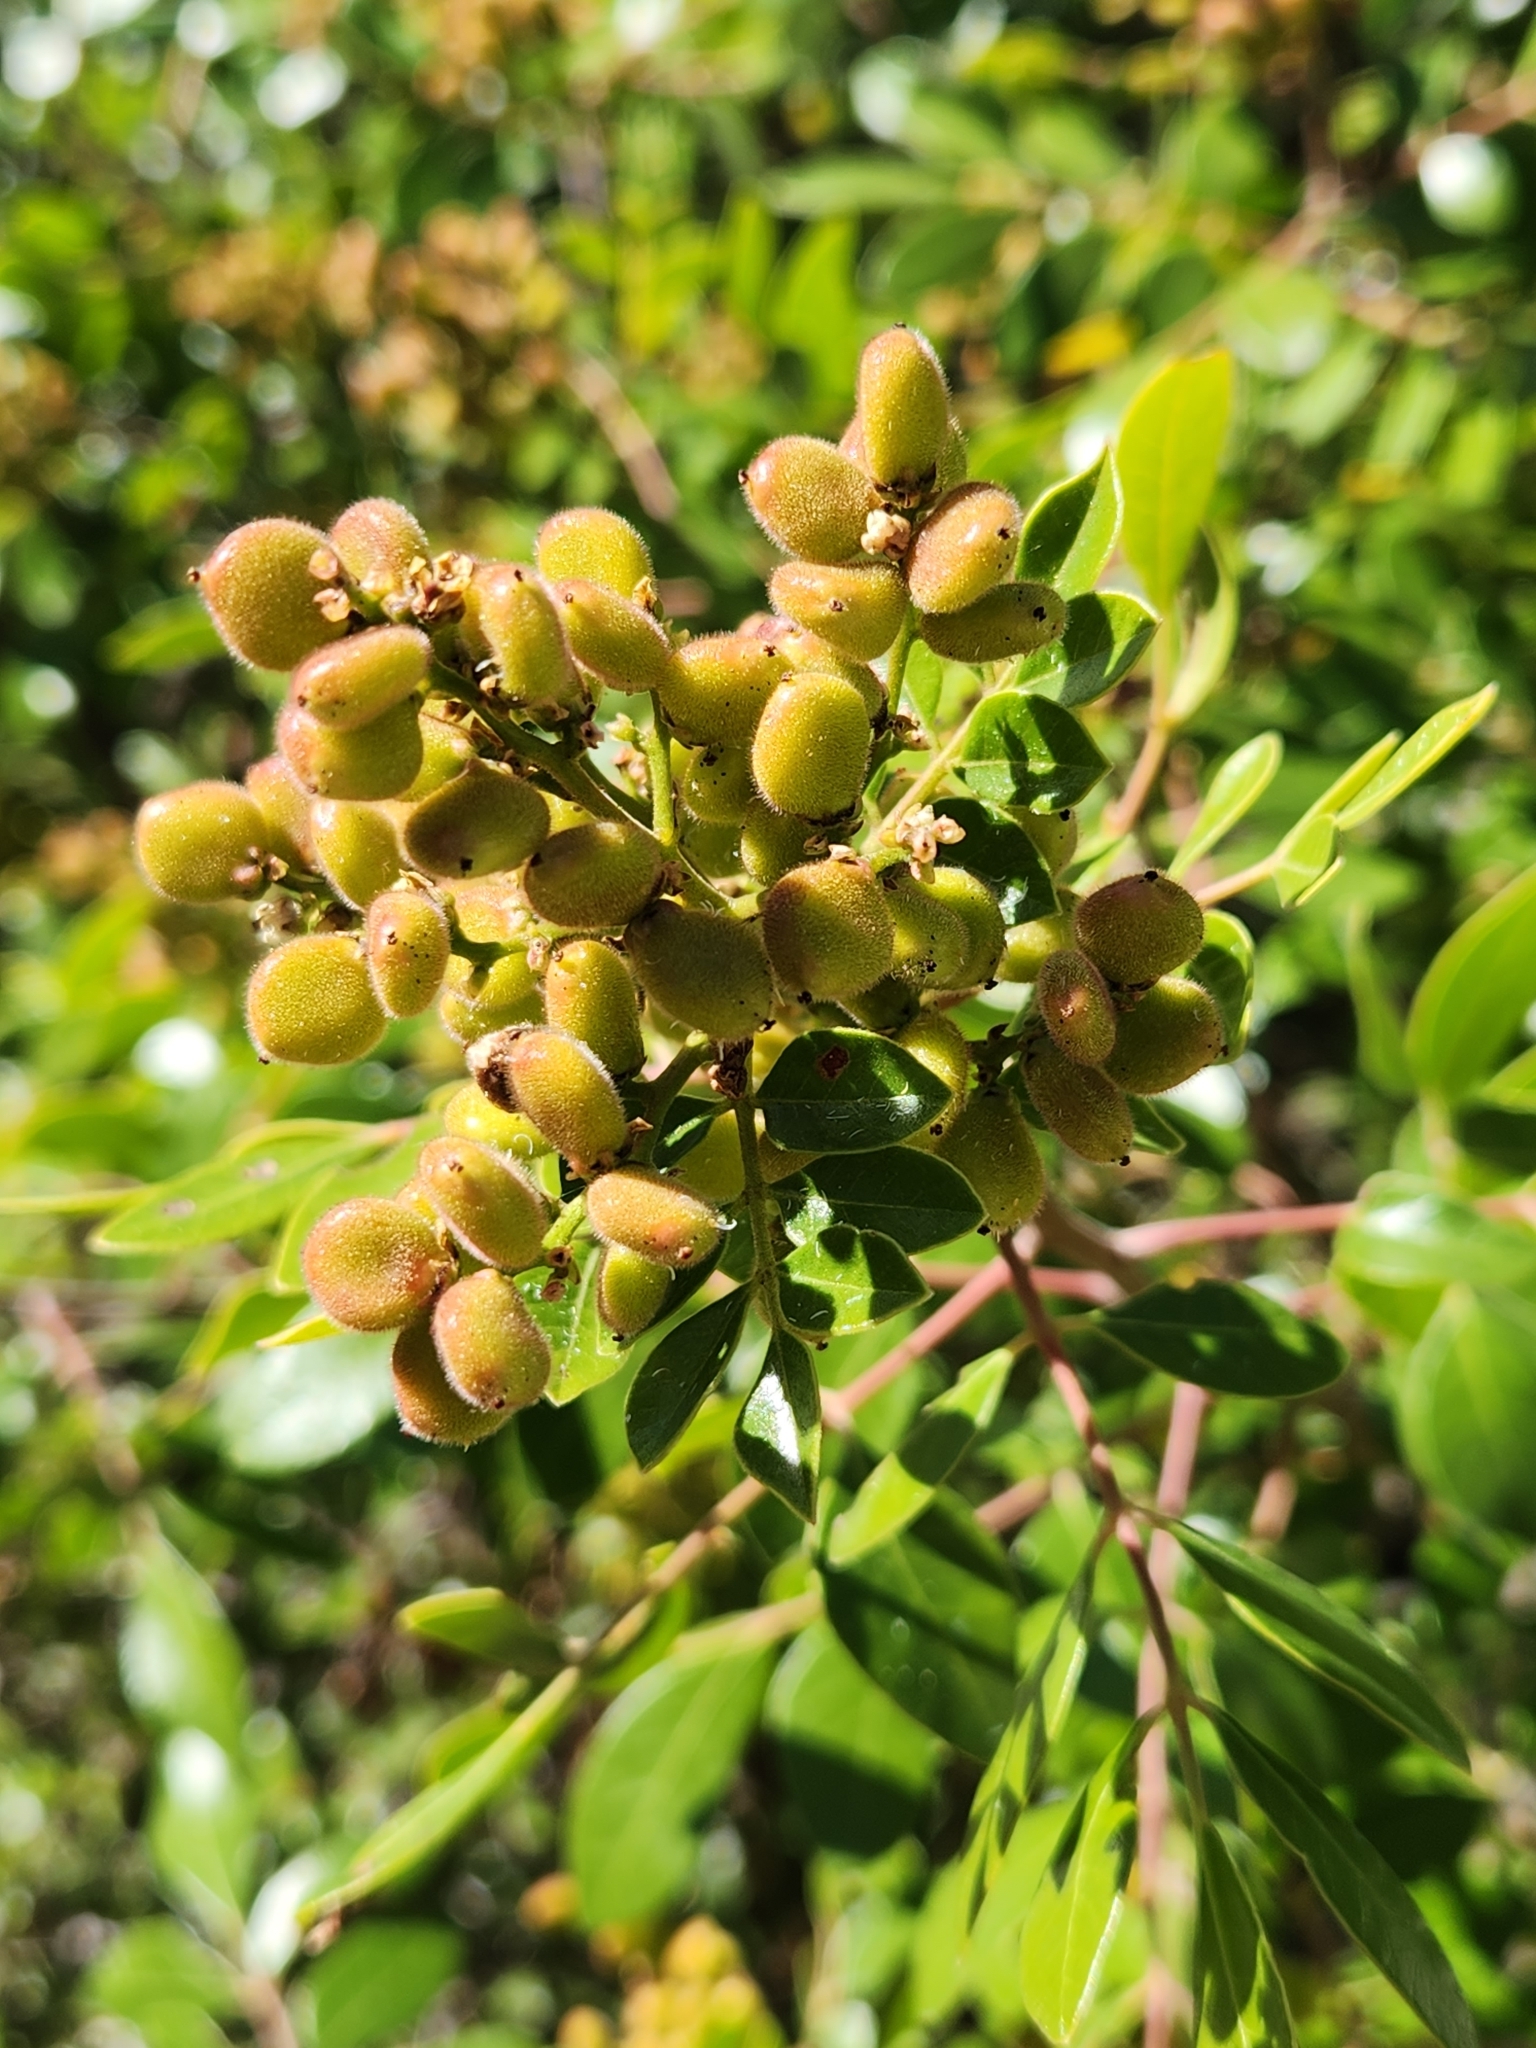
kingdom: Plantae
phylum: Tracheophyta
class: Magnoliopsida
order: Sapindales
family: Anacardiaceae
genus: Rhus
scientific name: Rhus virens
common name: Evergreen sumac
